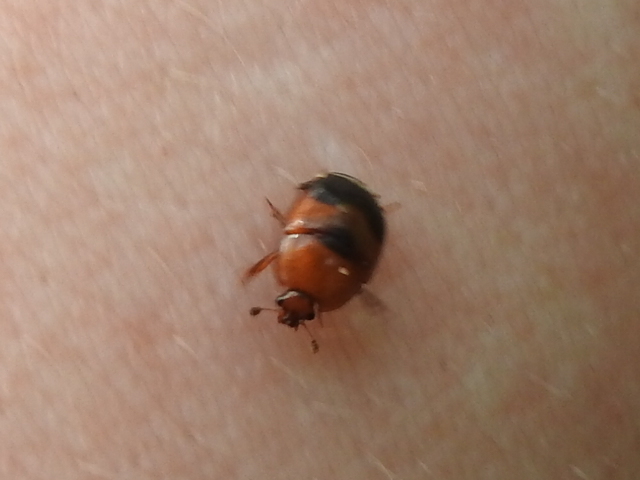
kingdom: Animalia
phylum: Arthropoda
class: Insecta
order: Coleoptera
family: Nitidulidae
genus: Oxycnemus
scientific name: Oxycnemus fasciatus
